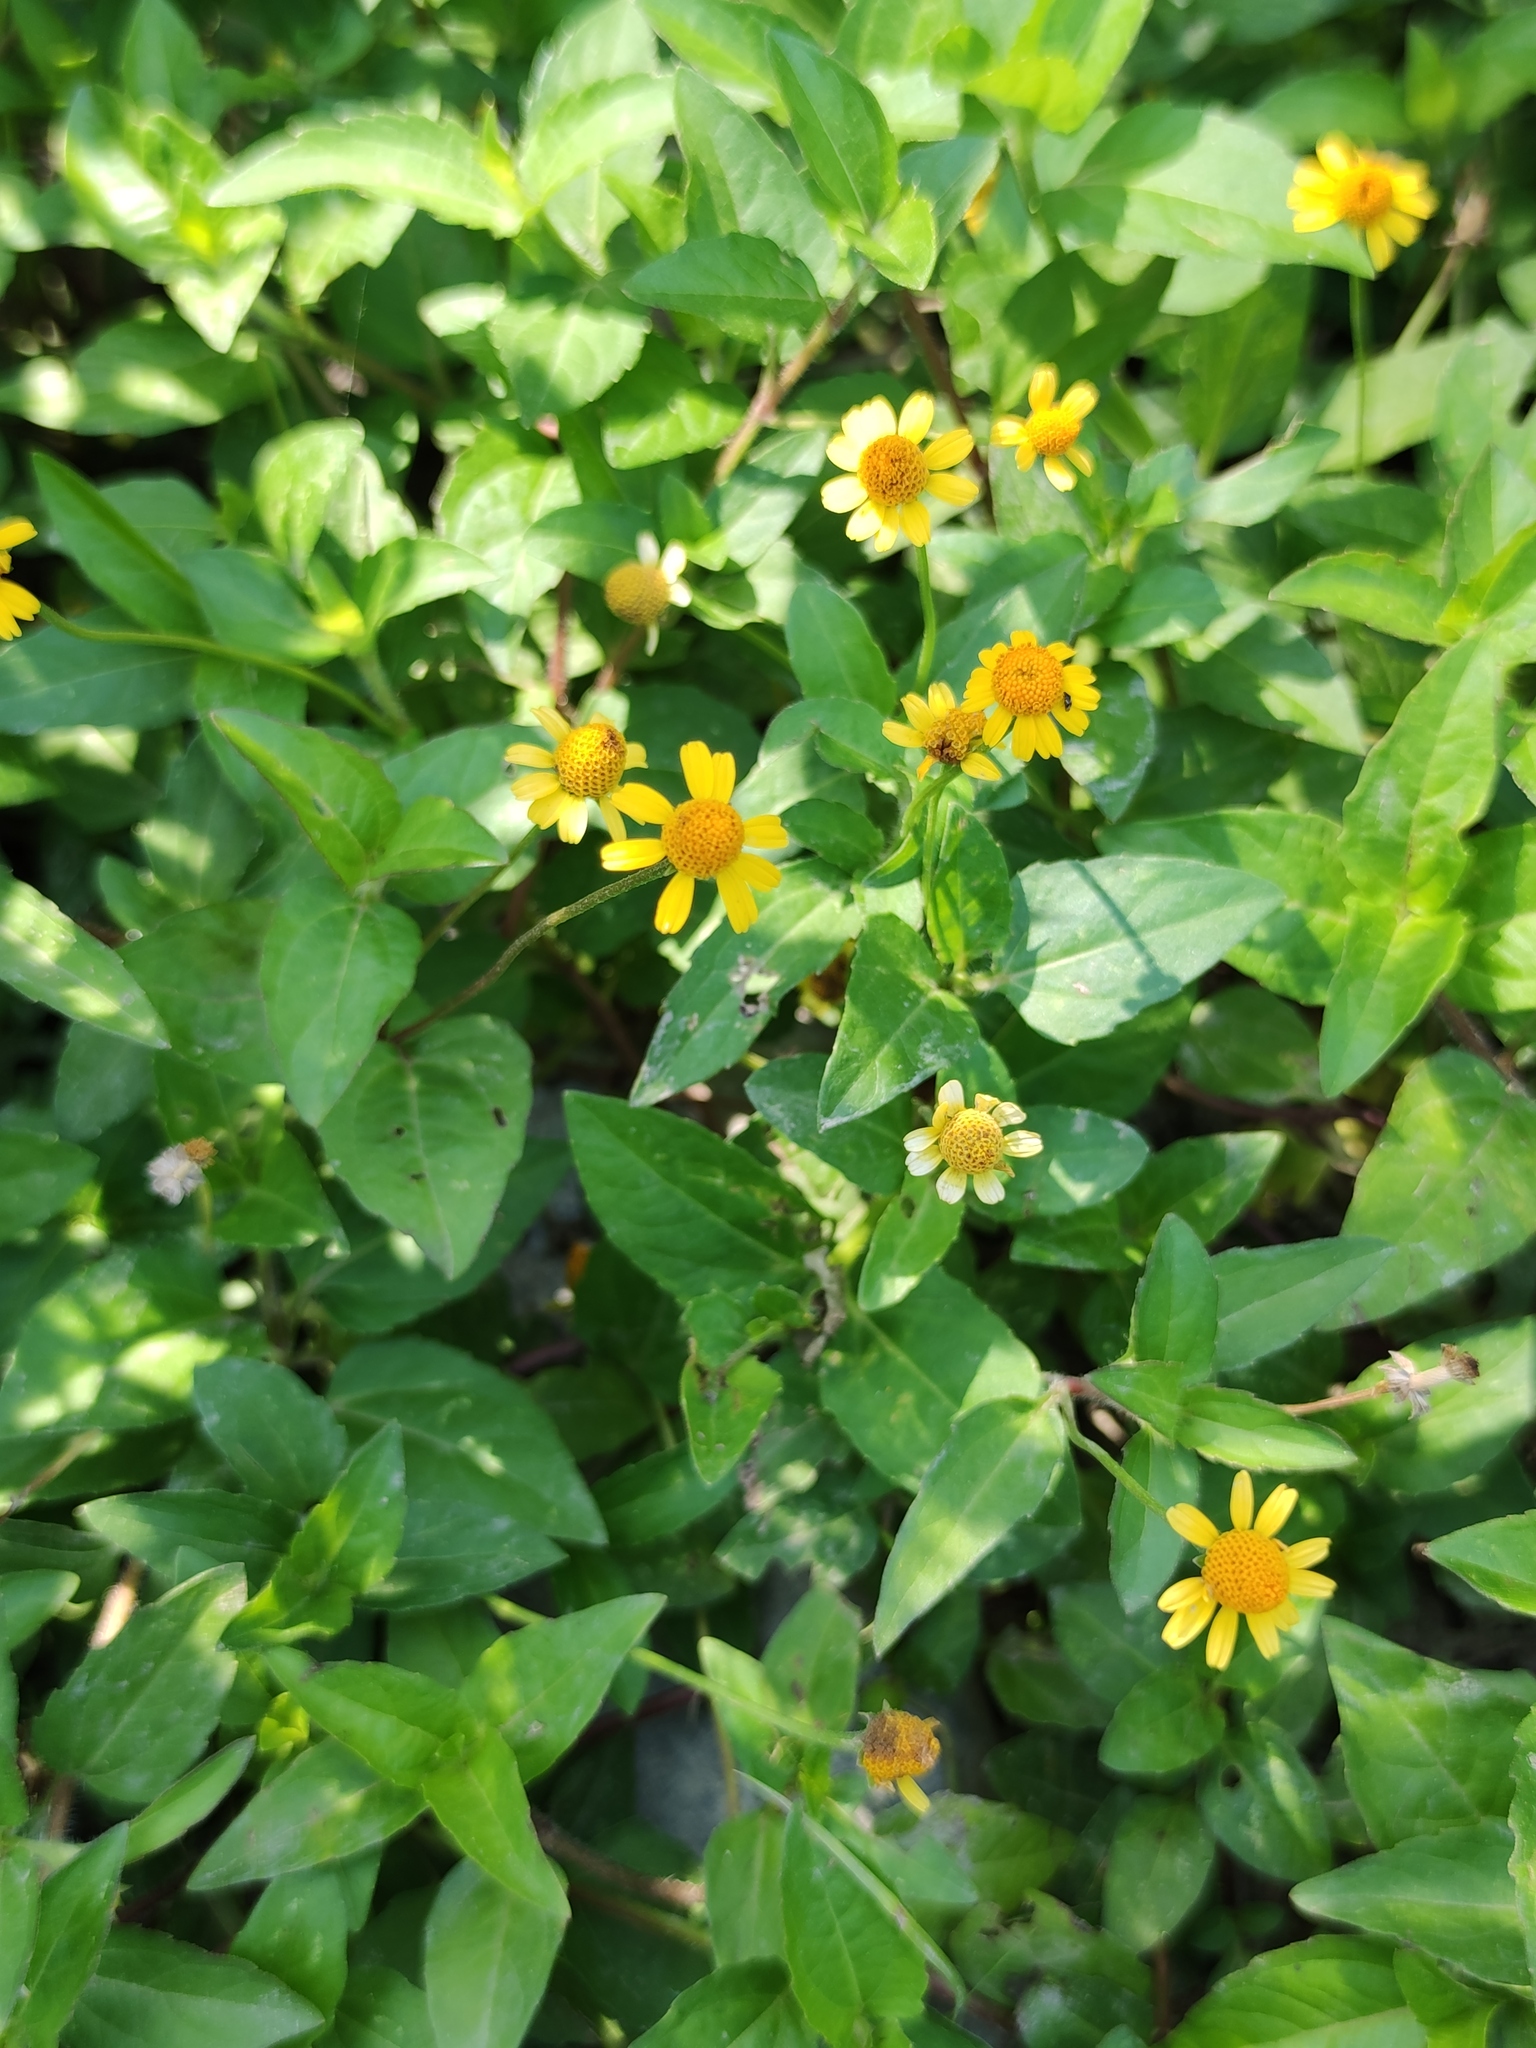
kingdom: Plantae
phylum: Tracheophyta
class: Magnoliopsida
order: Asterales
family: Asteraceae
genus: Acmella
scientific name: Acmella repens
